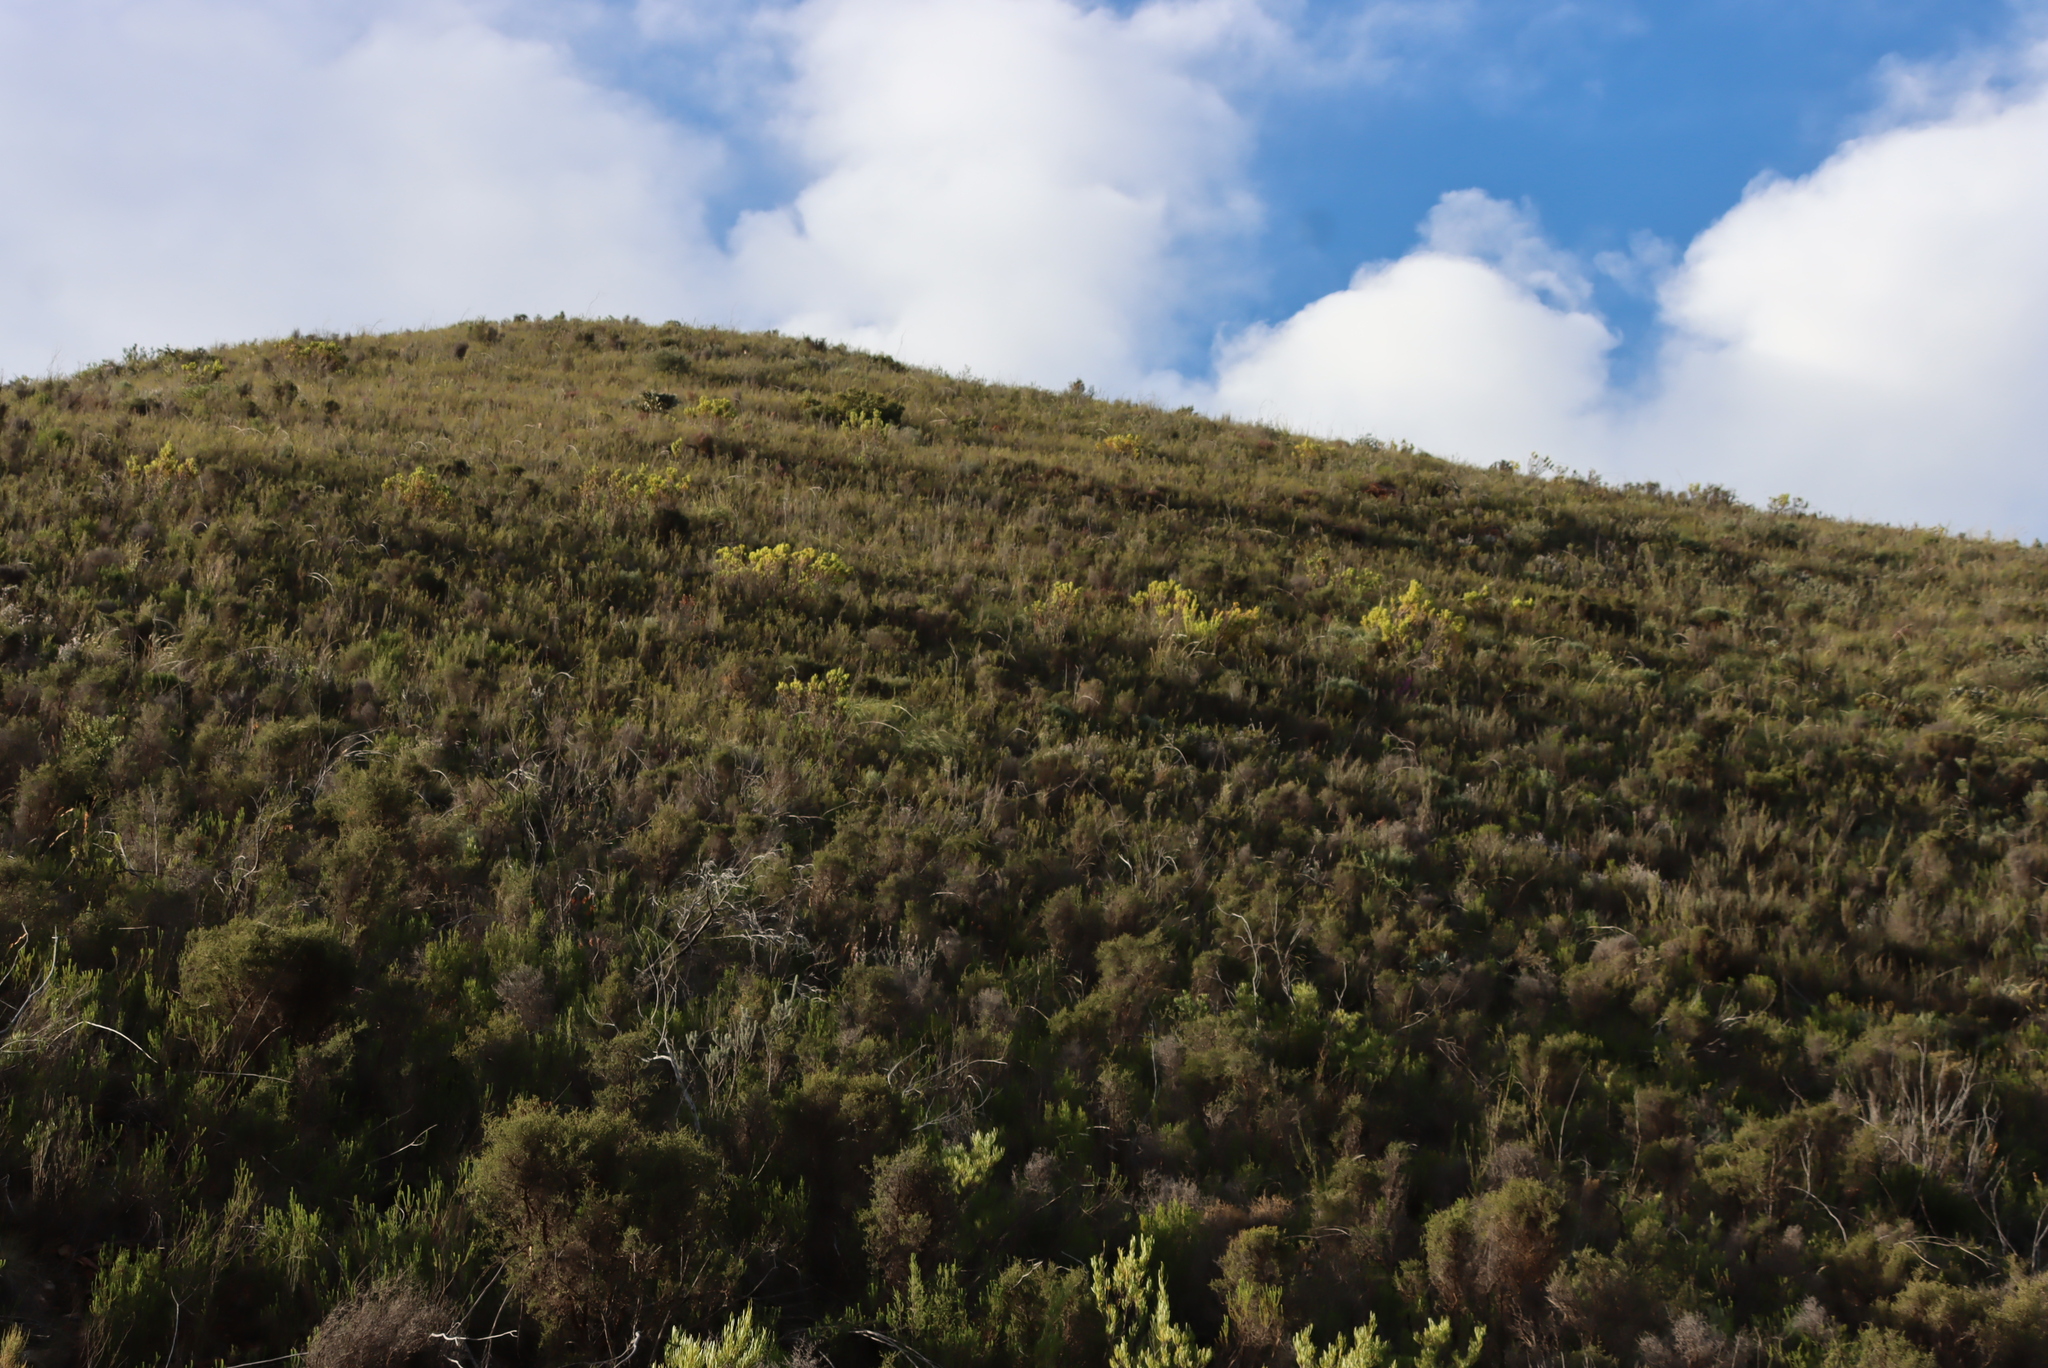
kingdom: Plantae
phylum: Tracheophyta
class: Magnoliopsida
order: Proteales
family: Proteaceae
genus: Leucadendron
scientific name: Leucadendron salignum
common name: Common sunshine conebush
